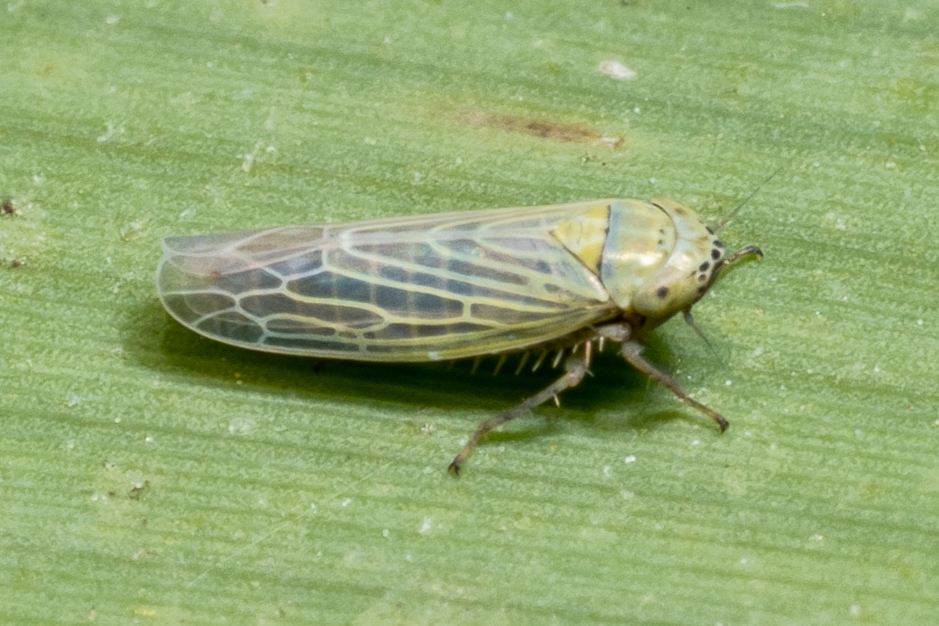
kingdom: Animalia
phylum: Arthropoda
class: Insecta
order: Hemiptera
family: Cicadellidae
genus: Graminella
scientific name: Graminella nigrifrons
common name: Blackfaced leafhopper
